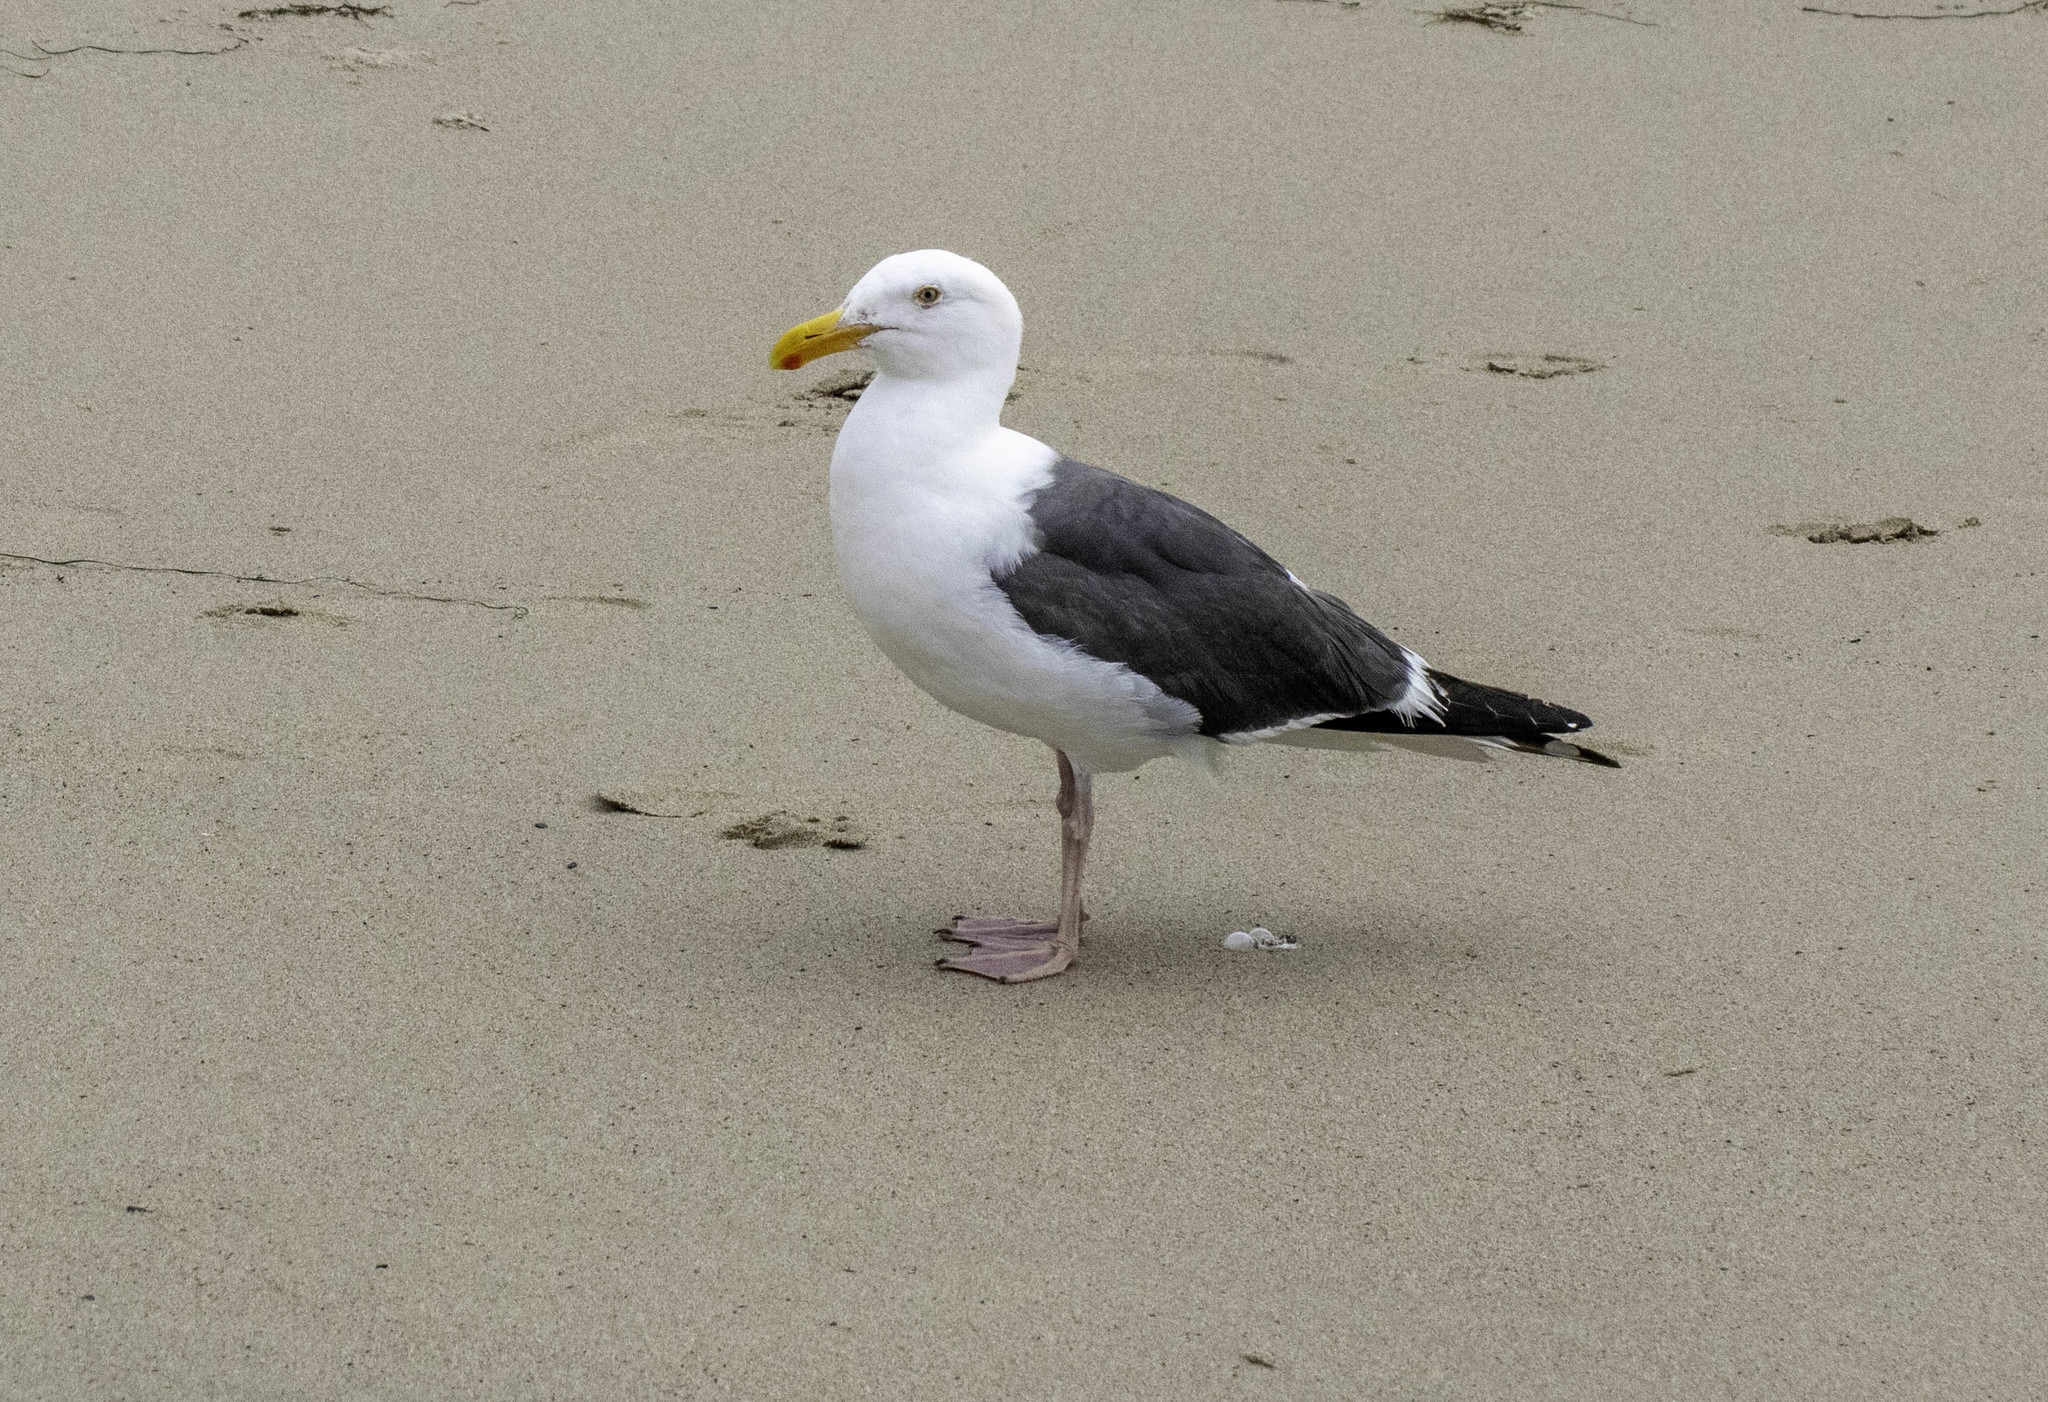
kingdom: Animalia
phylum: Chordata
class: Aves
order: Charadriiformes
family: Laridae
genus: Larus
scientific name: Larus occidentalis
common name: Western gull
